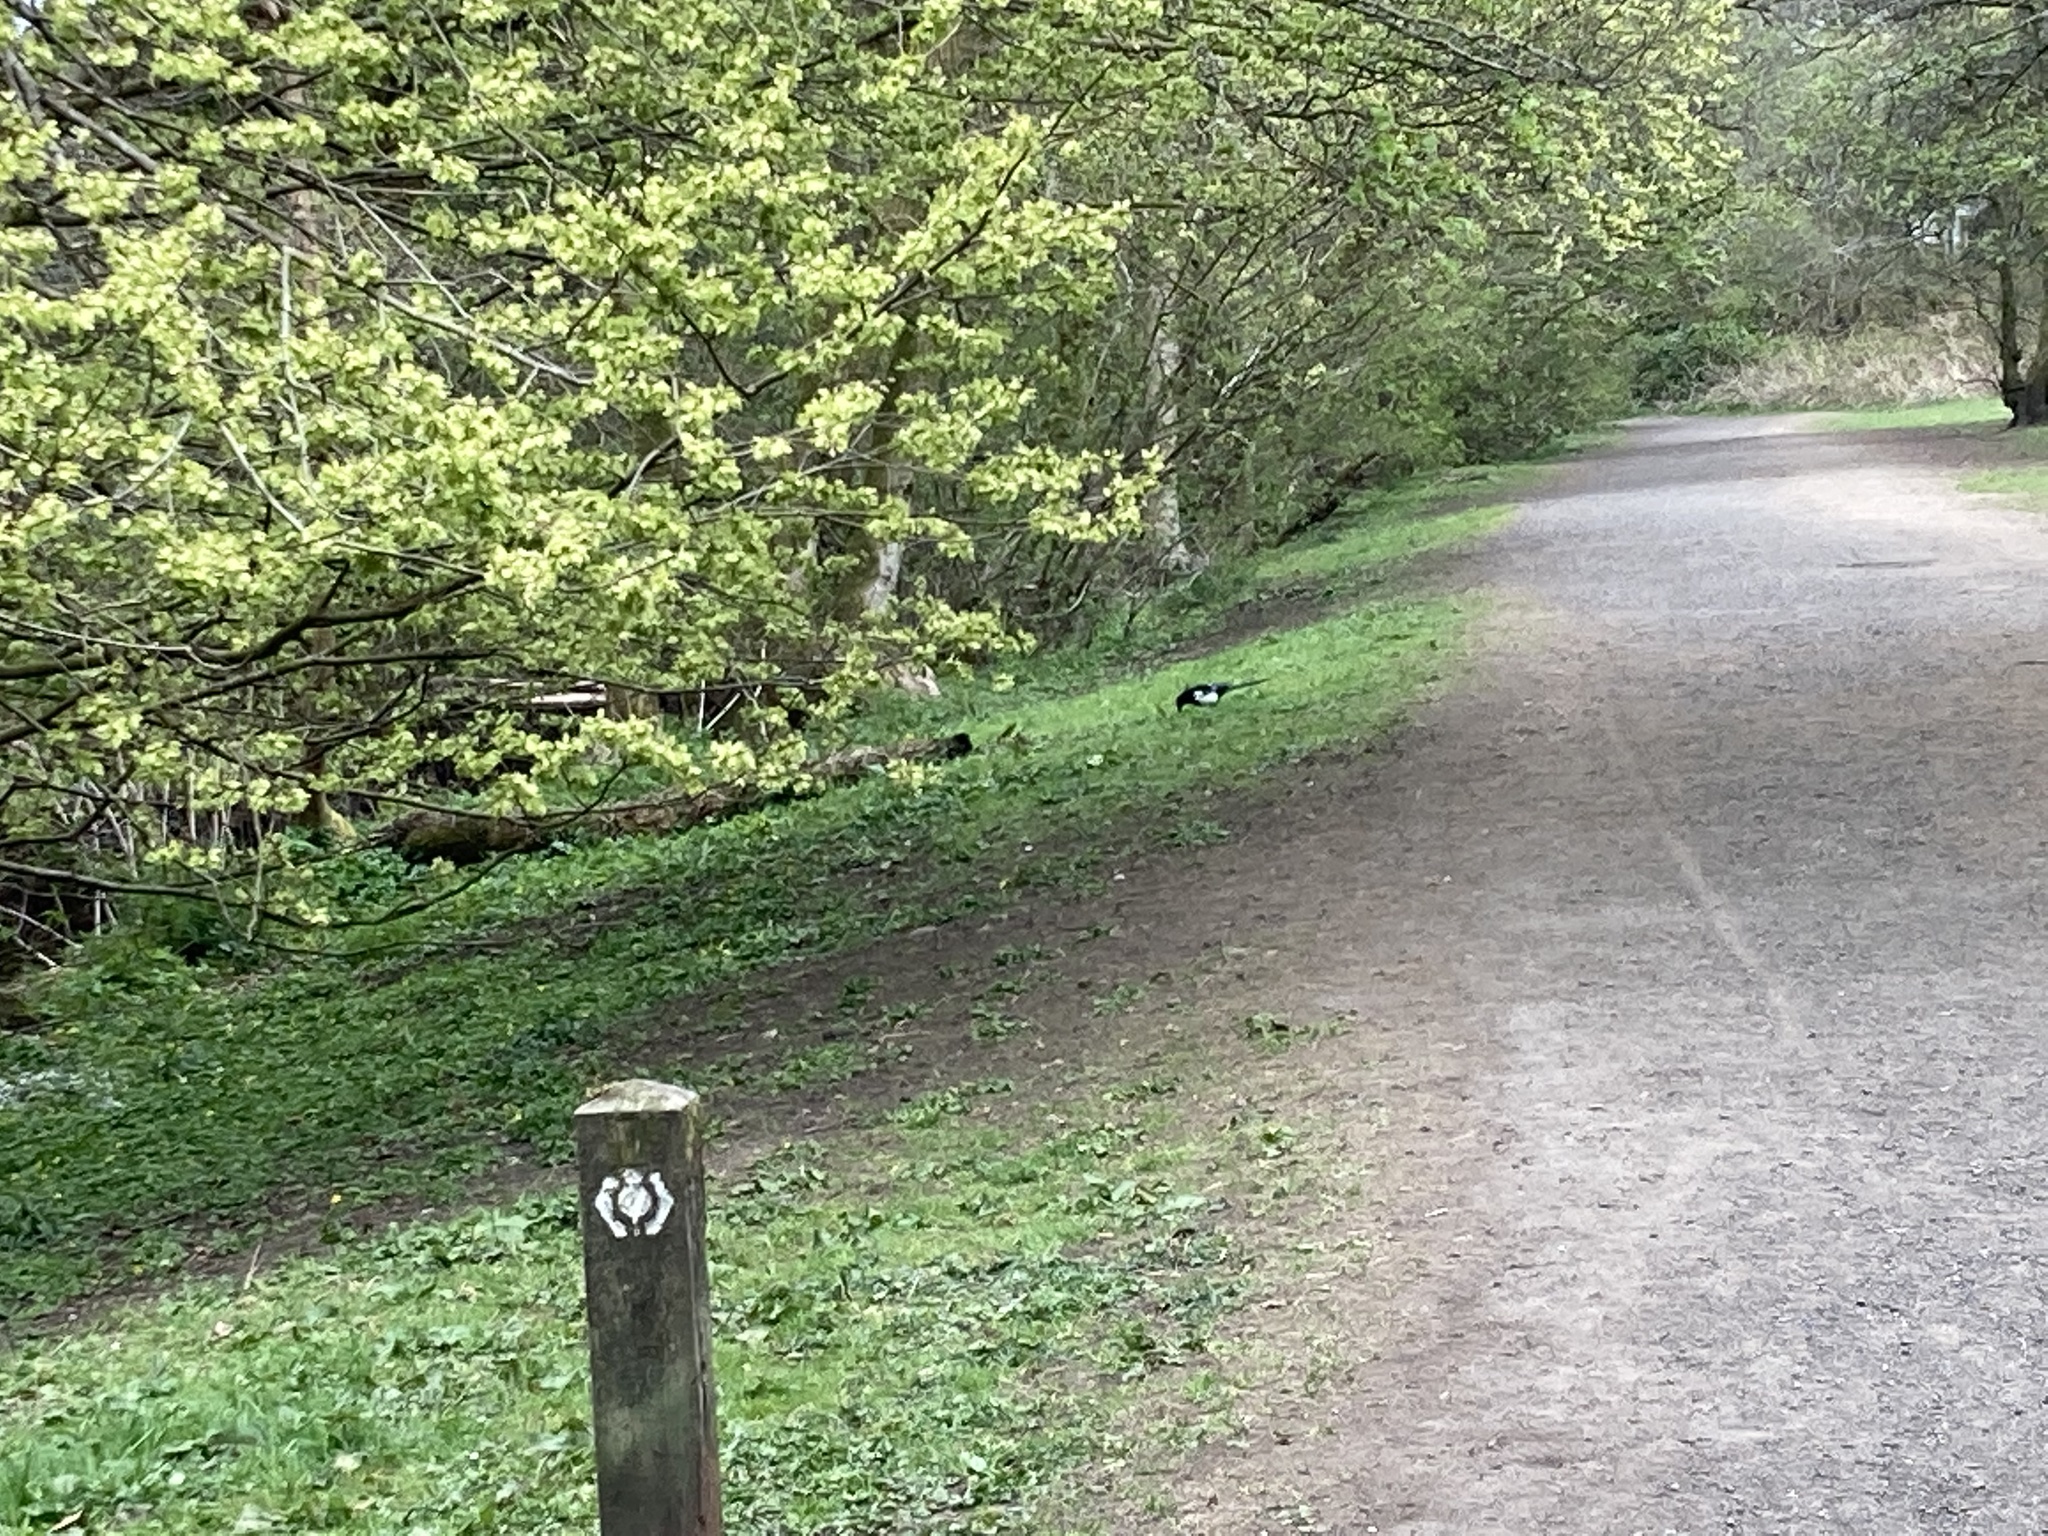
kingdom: Animalia
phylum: Chordata
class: Aves
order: Passeriformes
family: Corvidae
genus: Pica
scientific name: Pica pica
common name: Eurasian magpie
